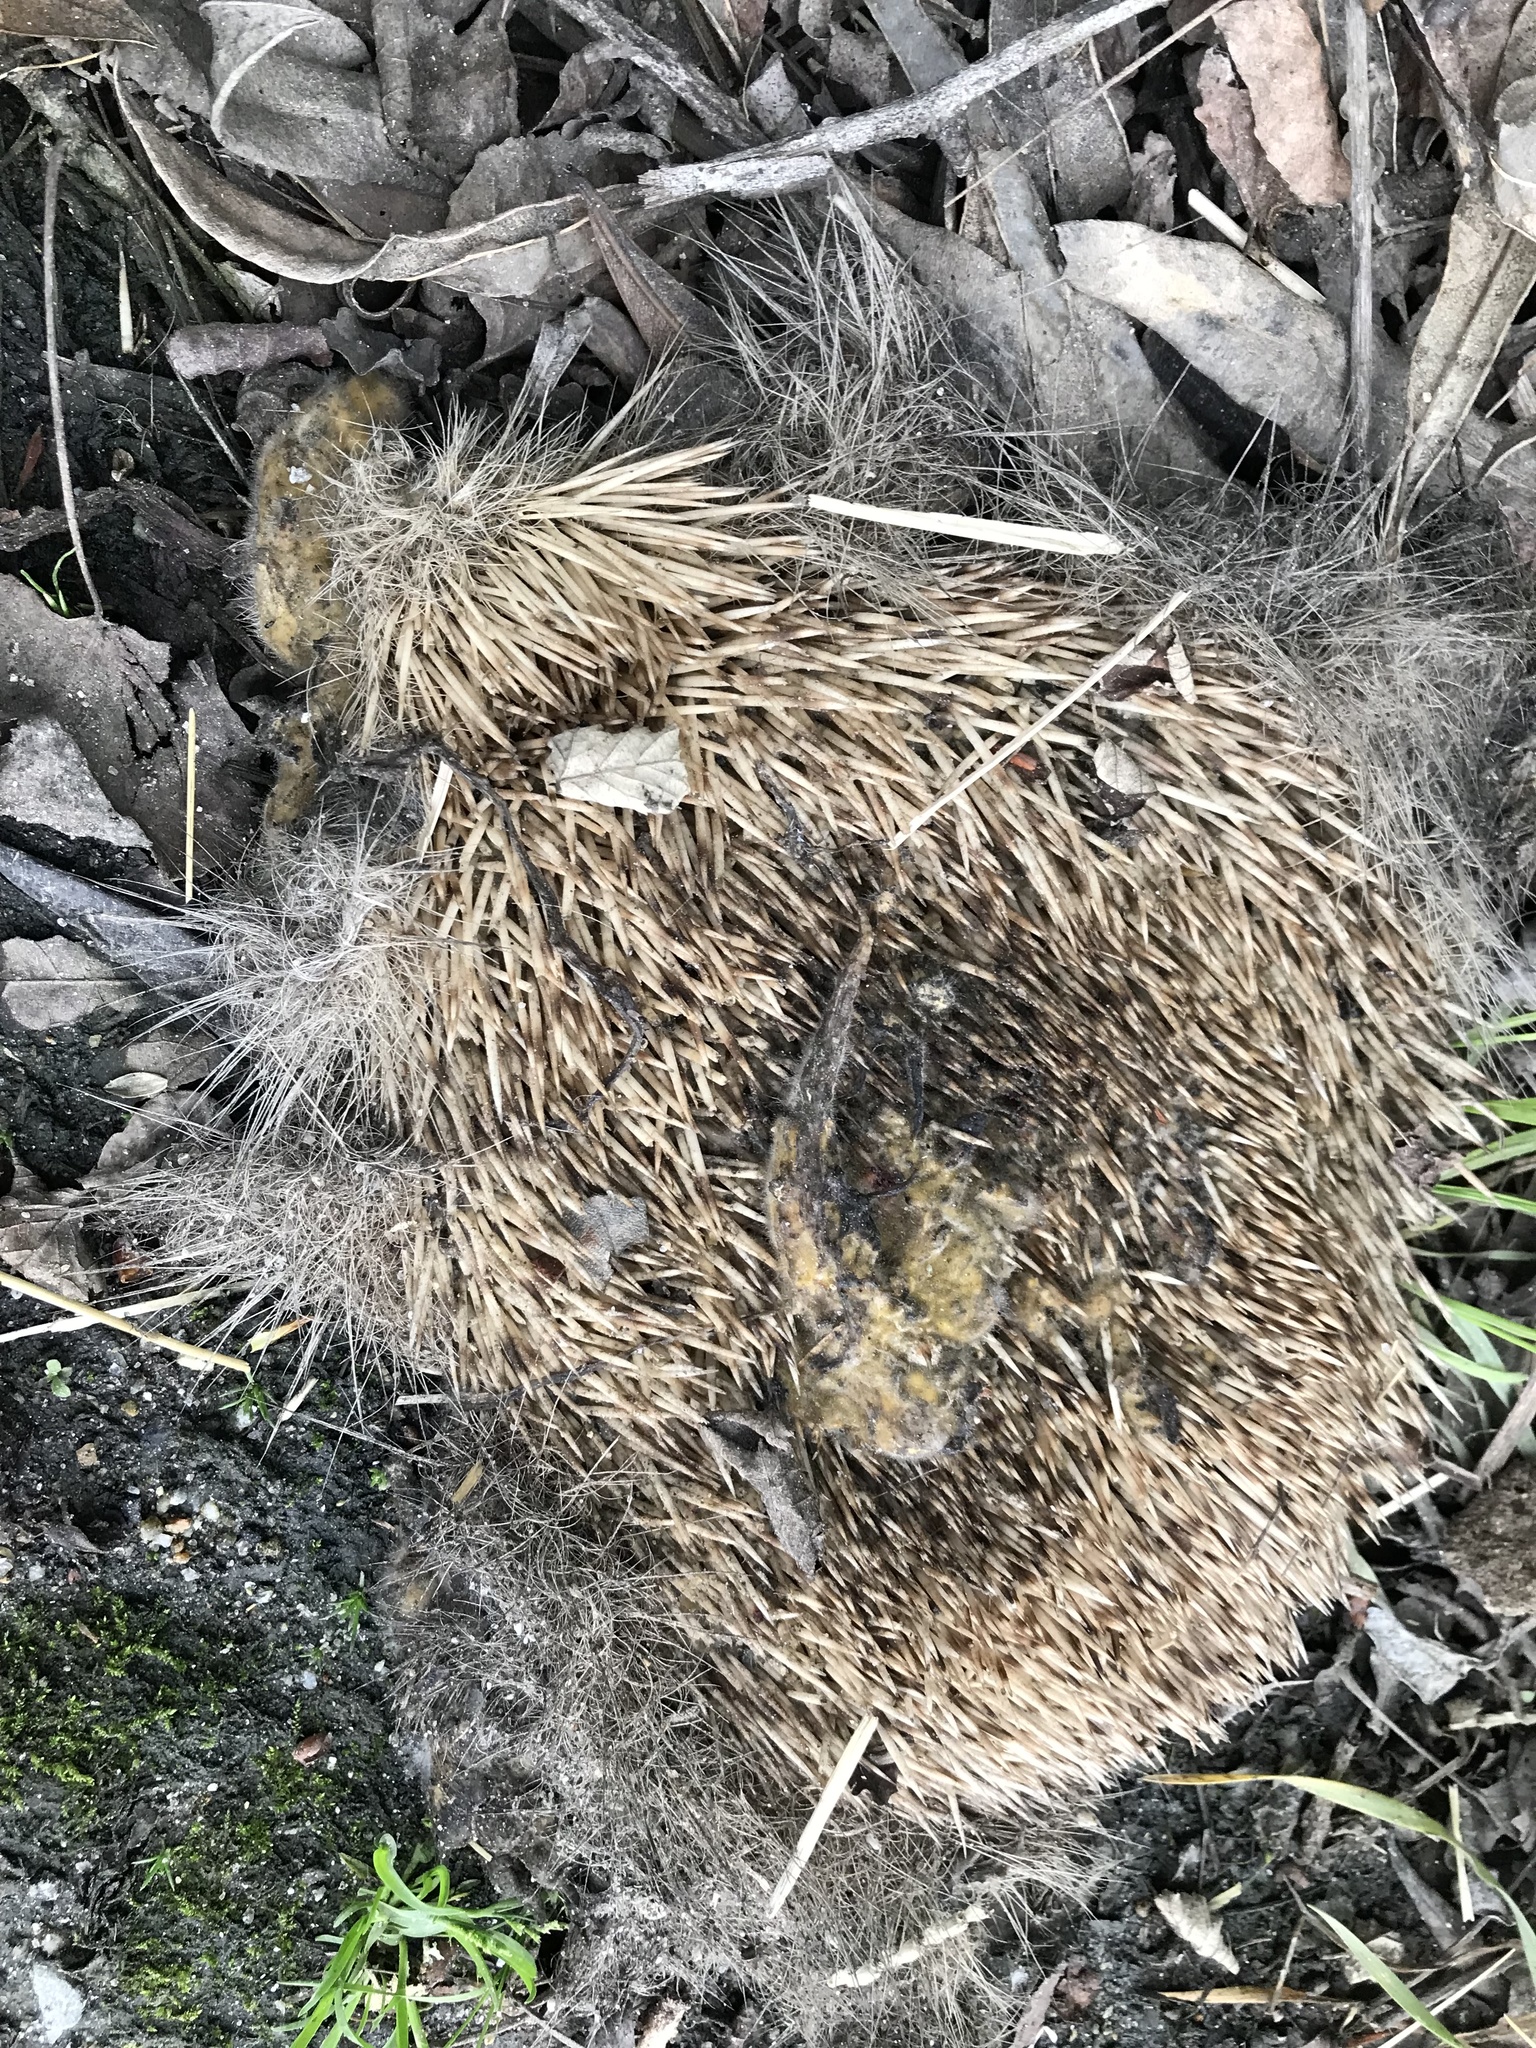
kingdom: Animalia
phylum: Chordata
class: Mammalia
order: Erinaceomorpha
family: Erinaceidae
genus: Erinaceus
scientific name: Erinaceus europaeus
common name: West european hedgehog
